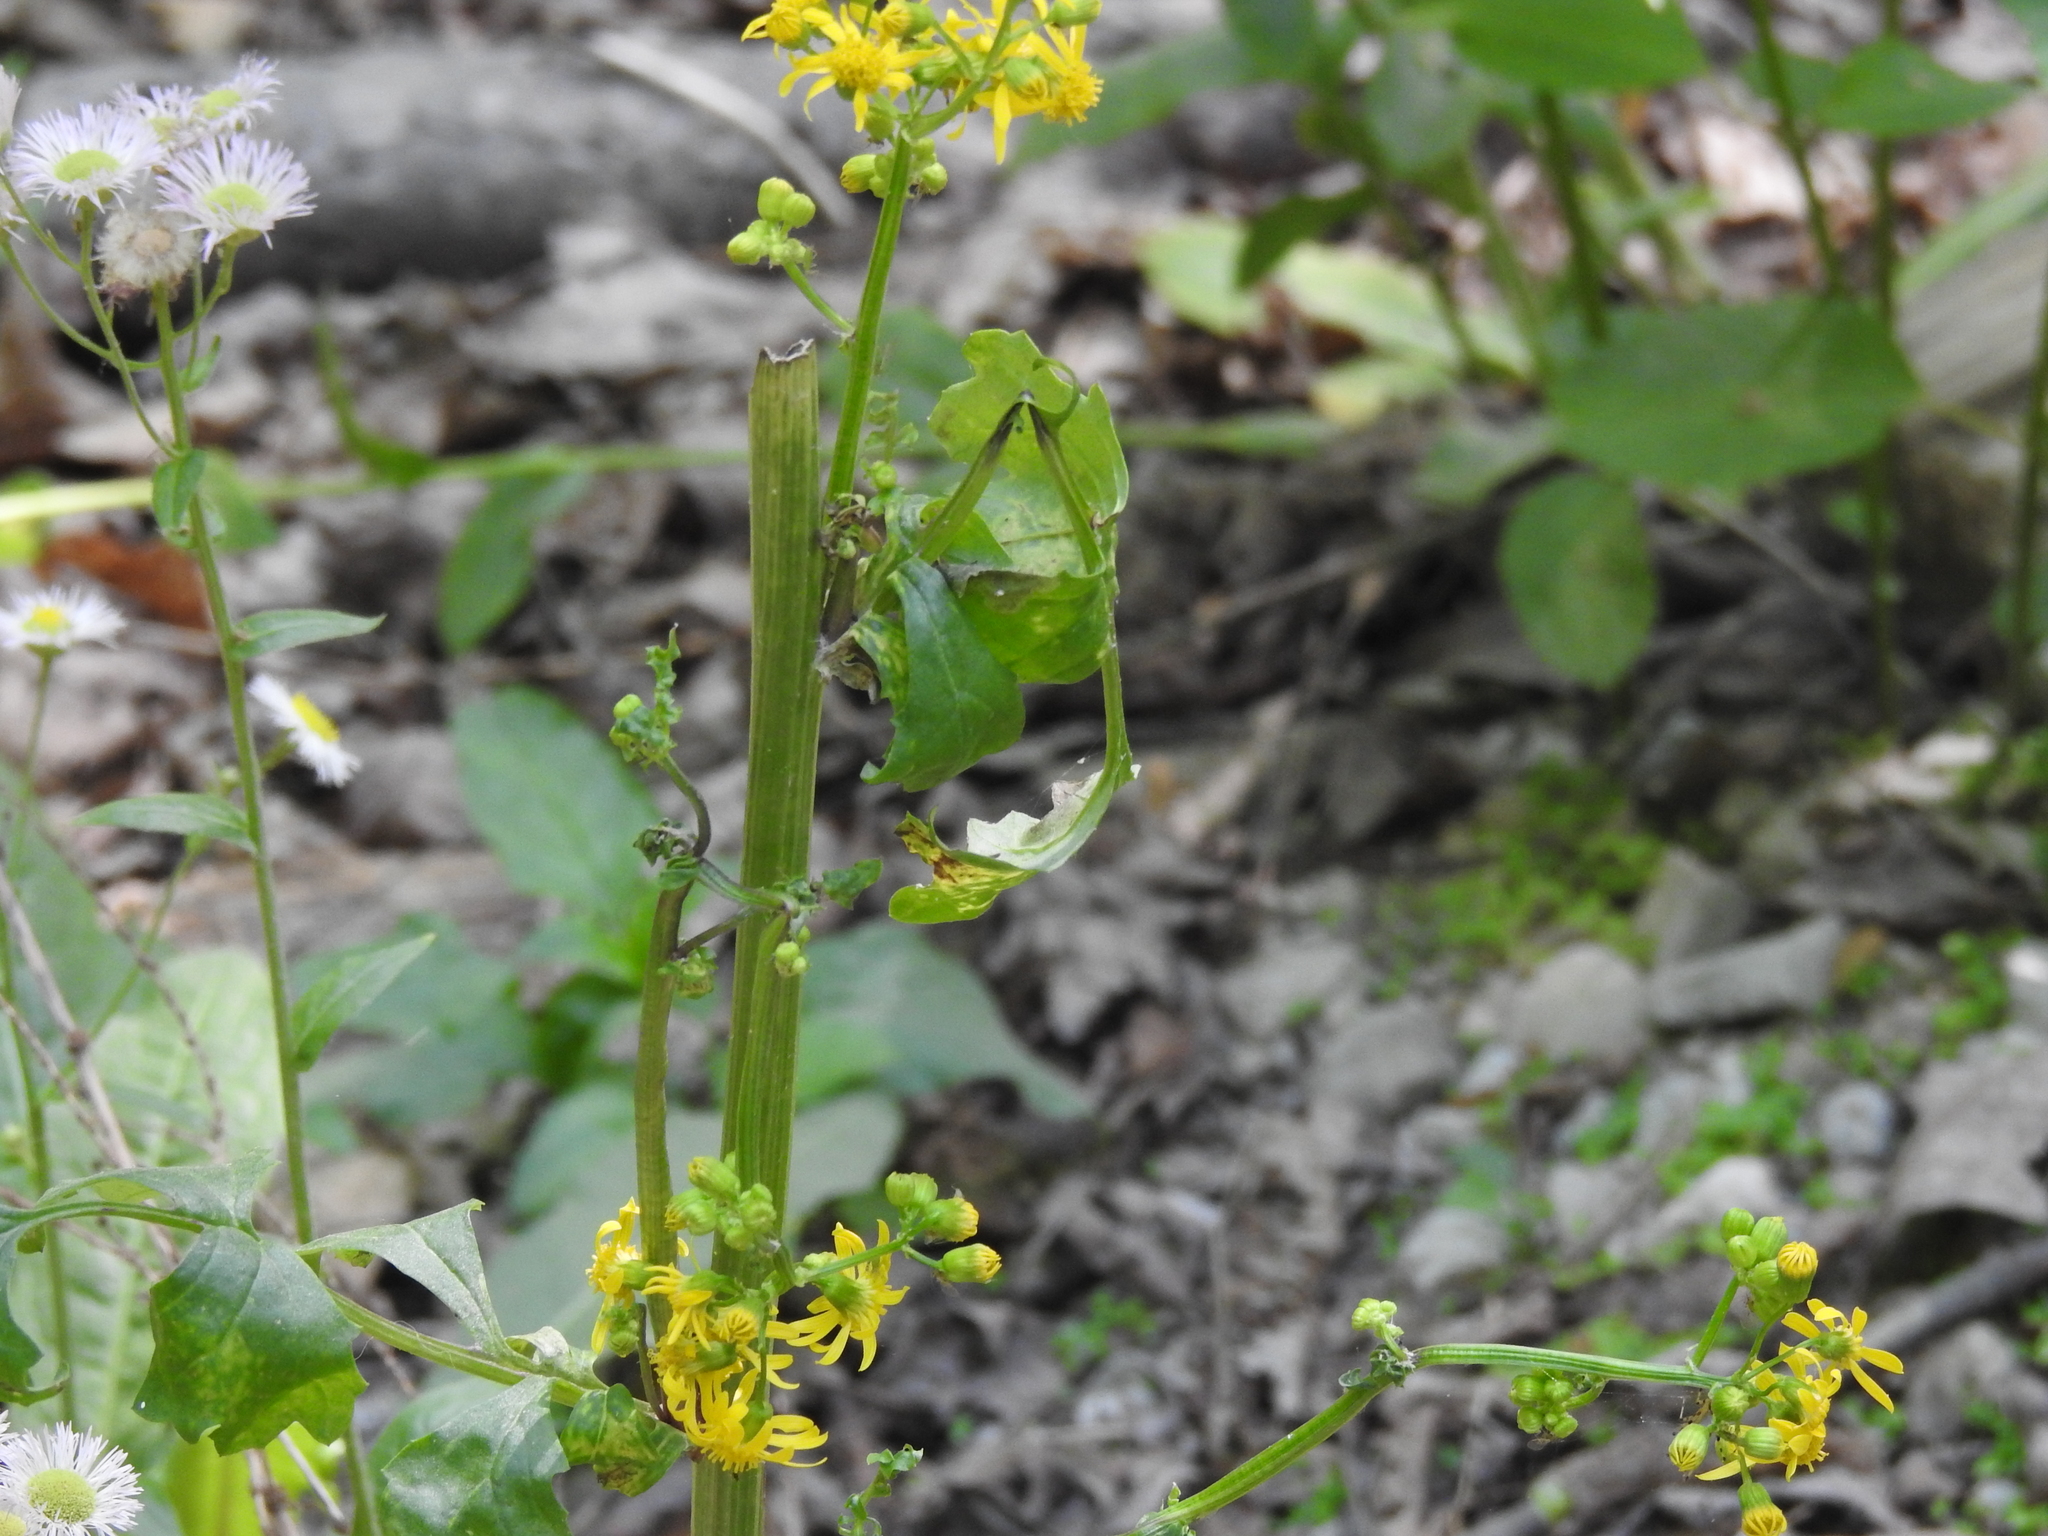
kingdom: Plantae
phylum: Tracheophyta
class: Magnoliopsida
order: Asterales
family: Asteraceae
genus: Packera
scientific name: Packera glabella
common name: Butterweed
